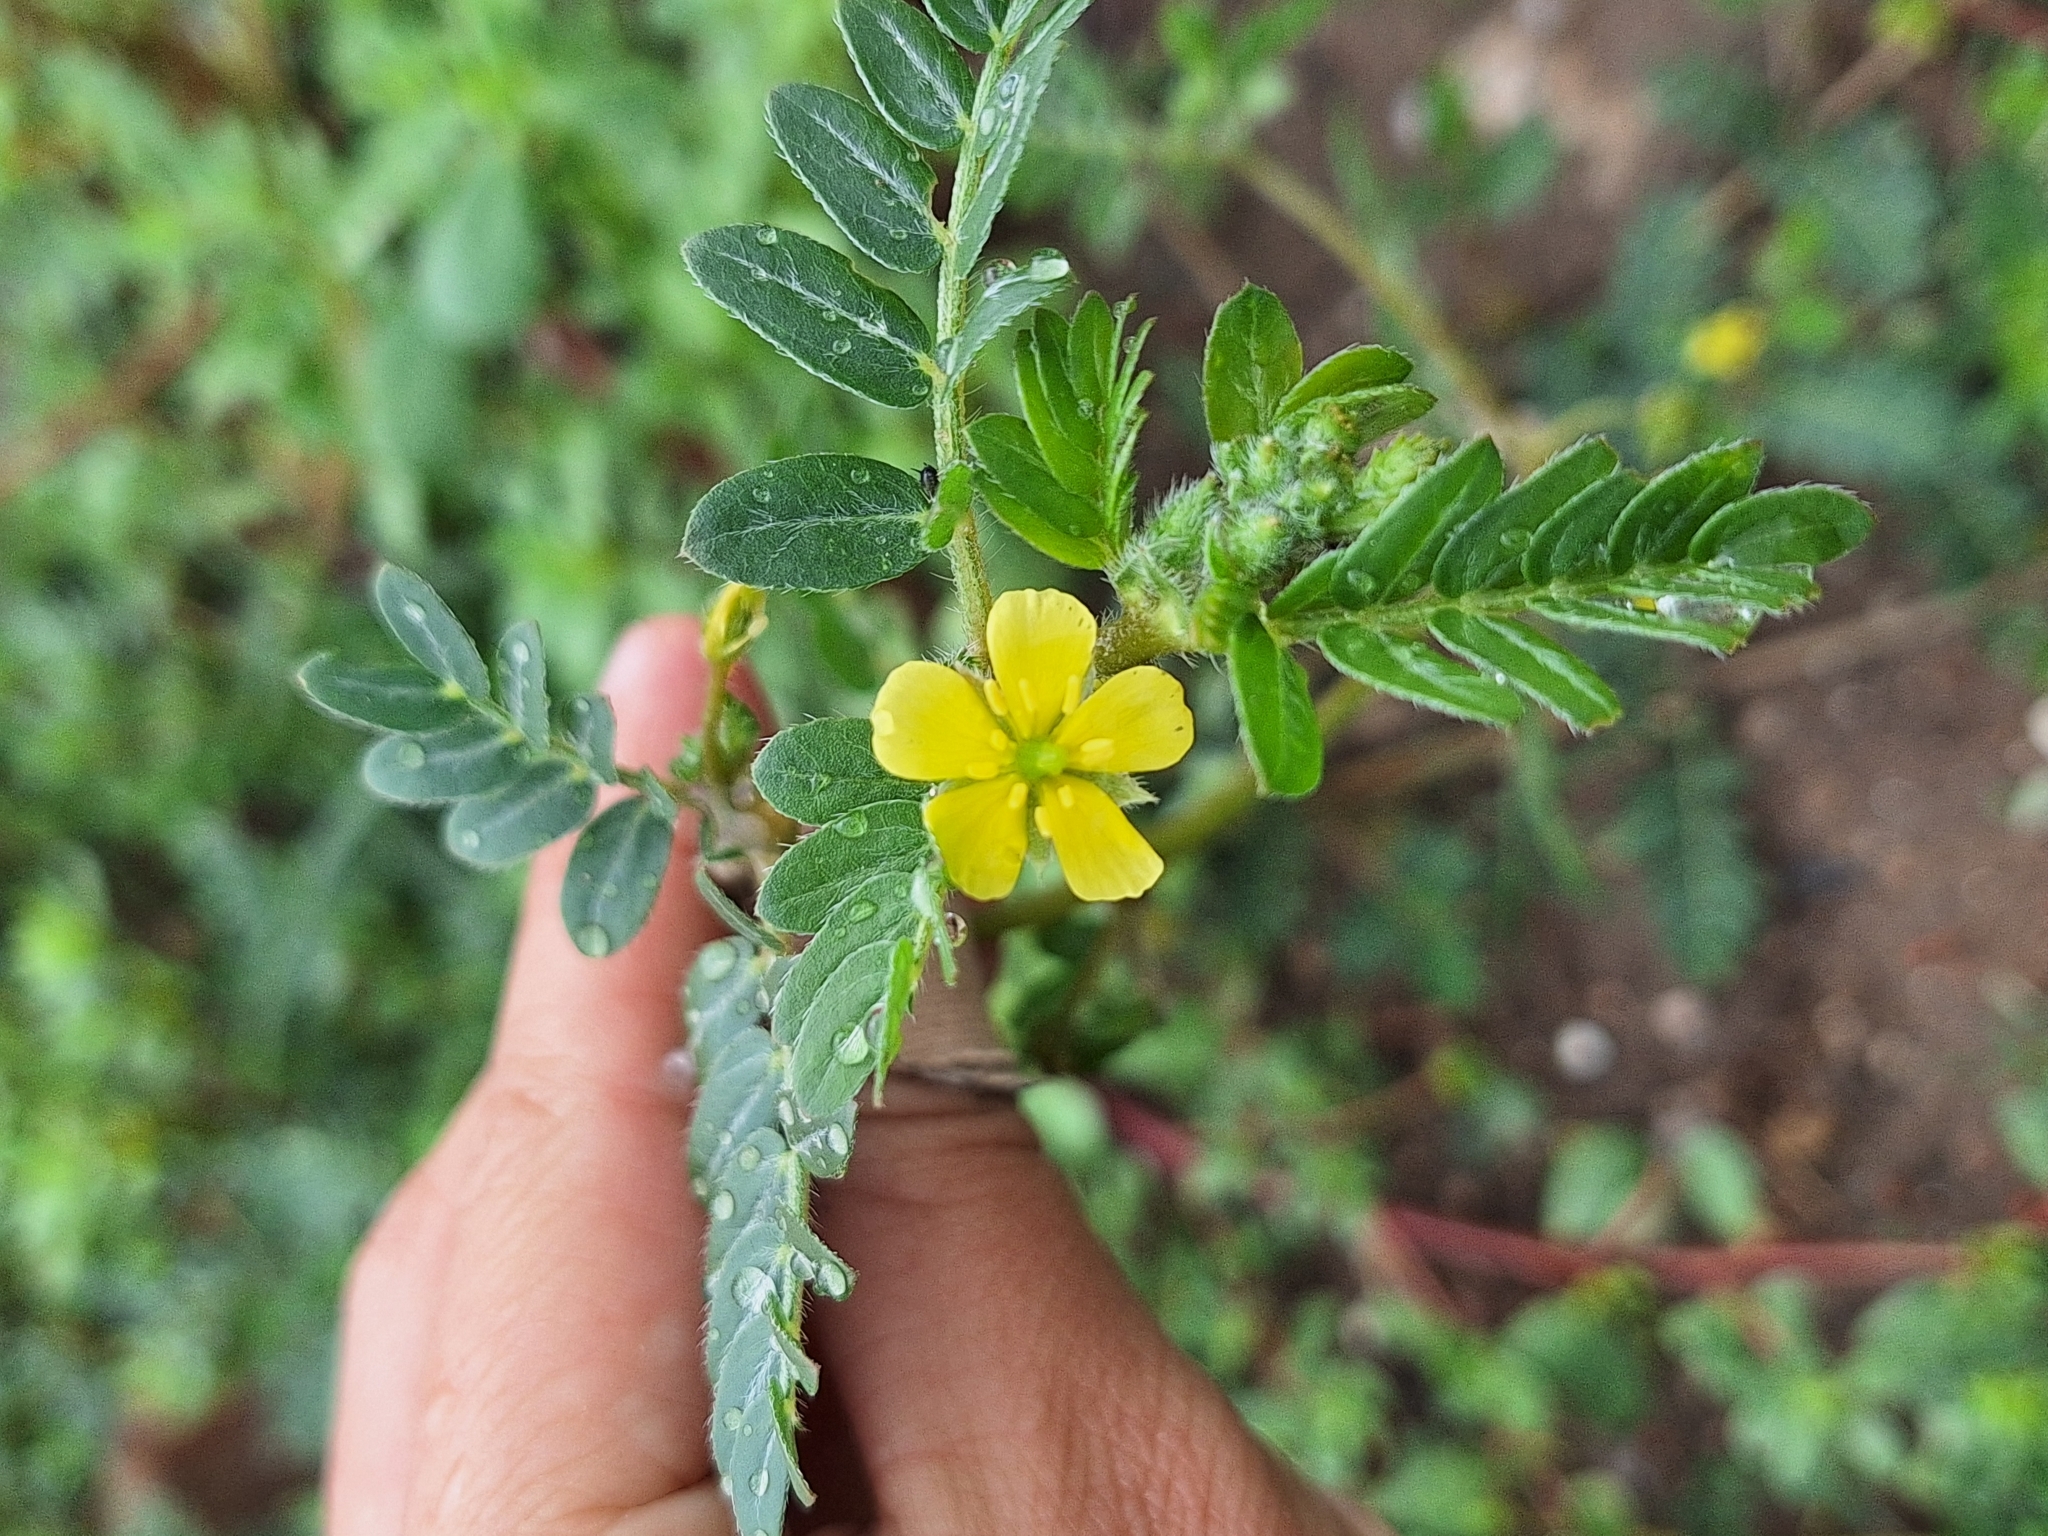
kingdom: Plantae
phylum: Tracheophyta
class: Magnoliopsida
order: Zygophyllales
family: Zygophyllaceae
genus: Tribulus
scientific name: Tribulus terrestris
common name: Puncturevine
